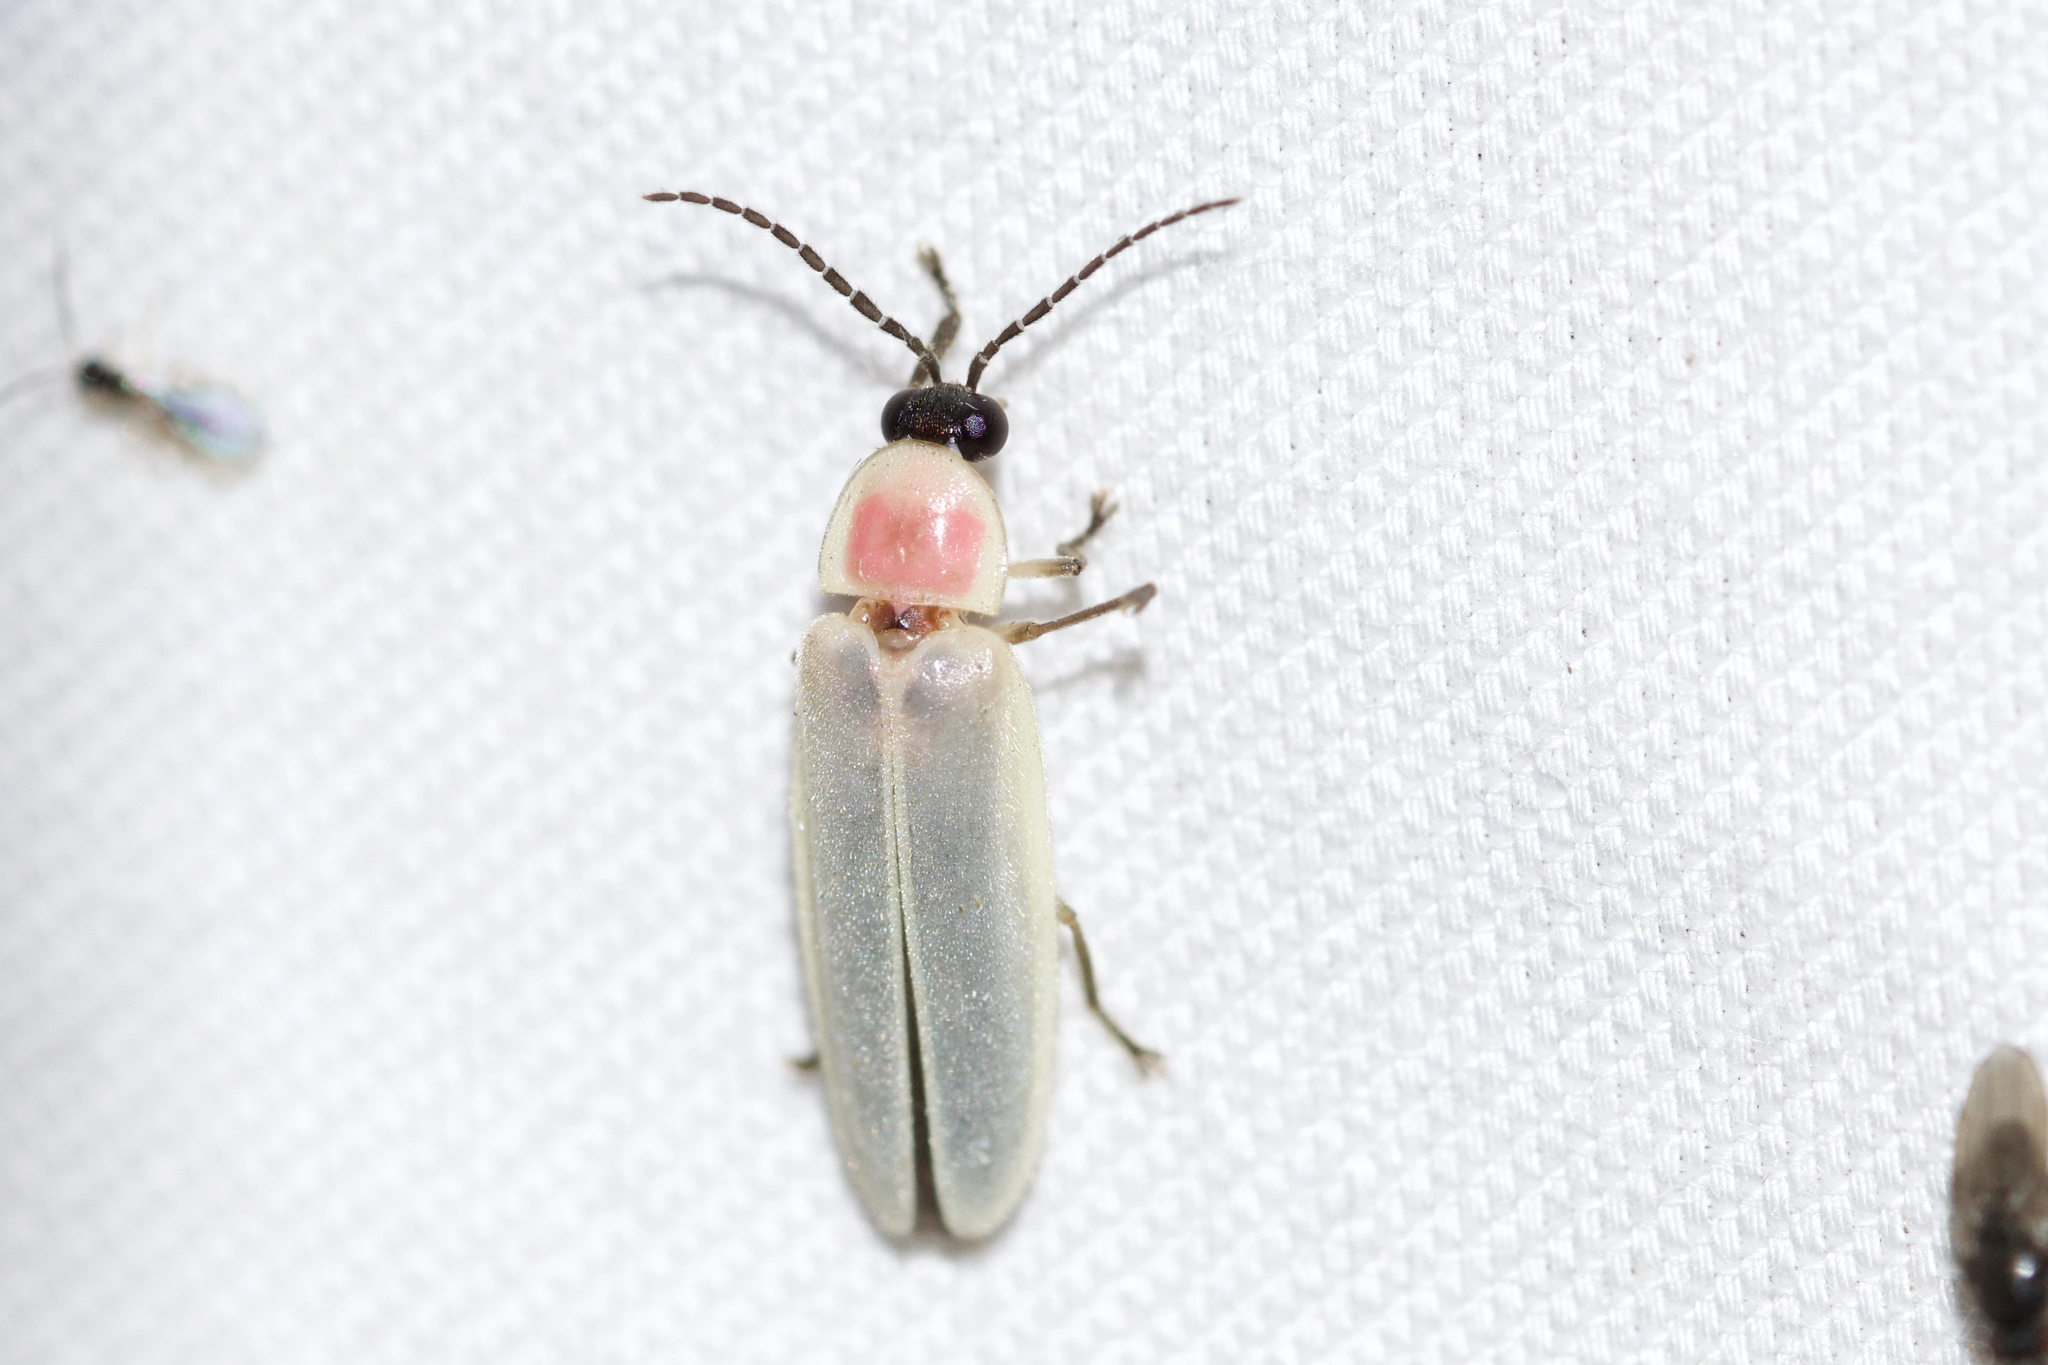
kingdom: Animalia
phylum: Arthropoda
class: Insecta
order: Coleoptera
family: Lampyridae
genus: Photinus
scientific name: Photinus marginellus
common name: Little gray firefly
